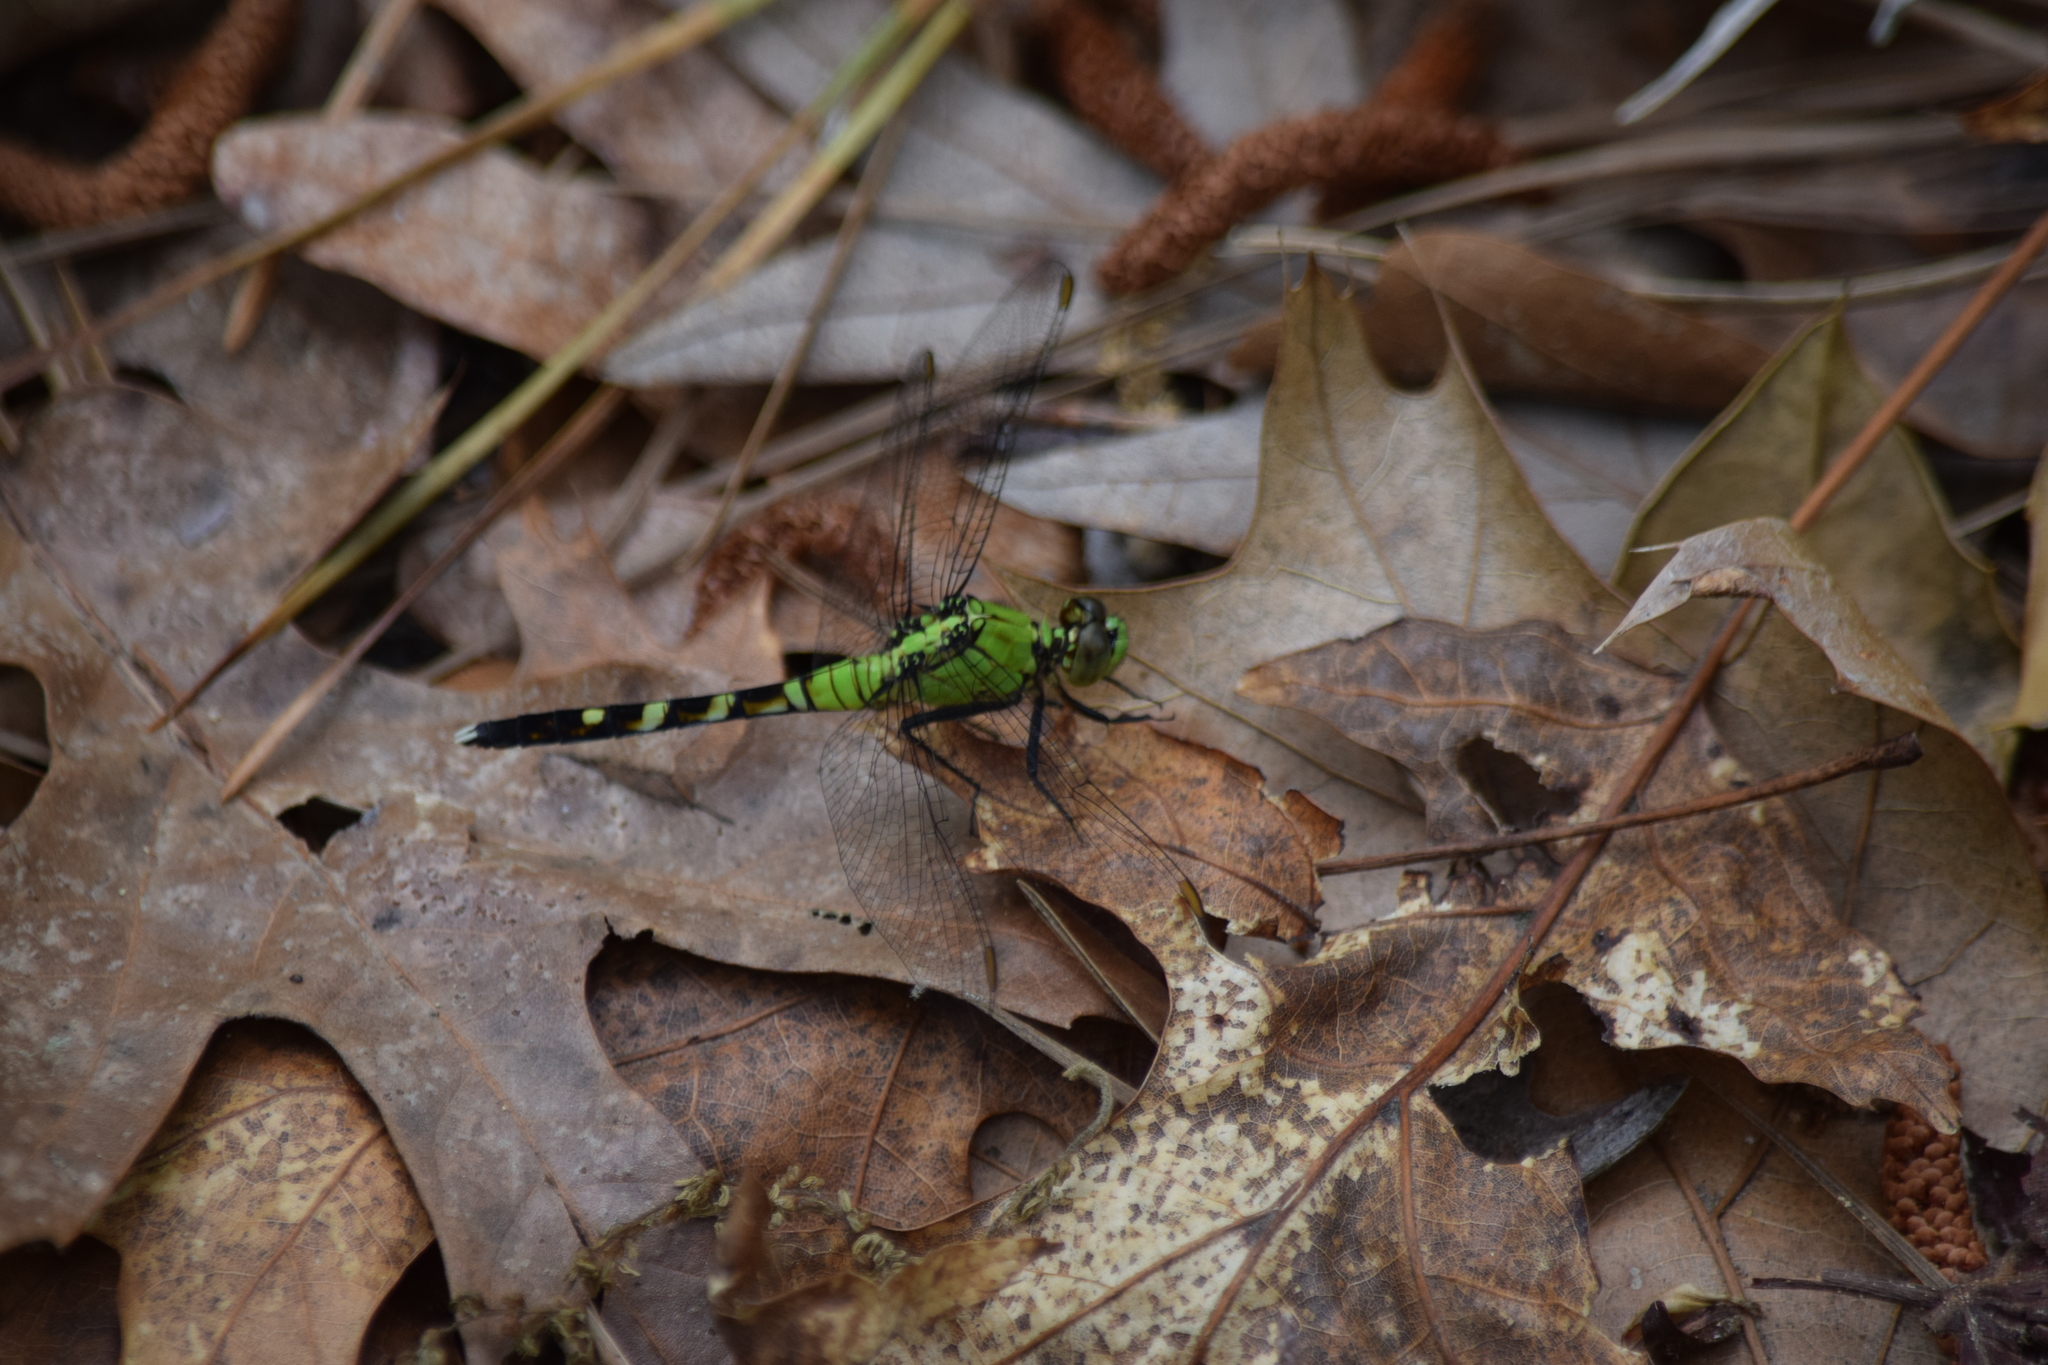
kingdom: Animalia
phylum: Arthropoda
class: Insecta
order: Odonata
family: Libellulidae
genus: Erythemis
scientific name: Erythemis simplicicollis
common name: Eastern pondhawk
